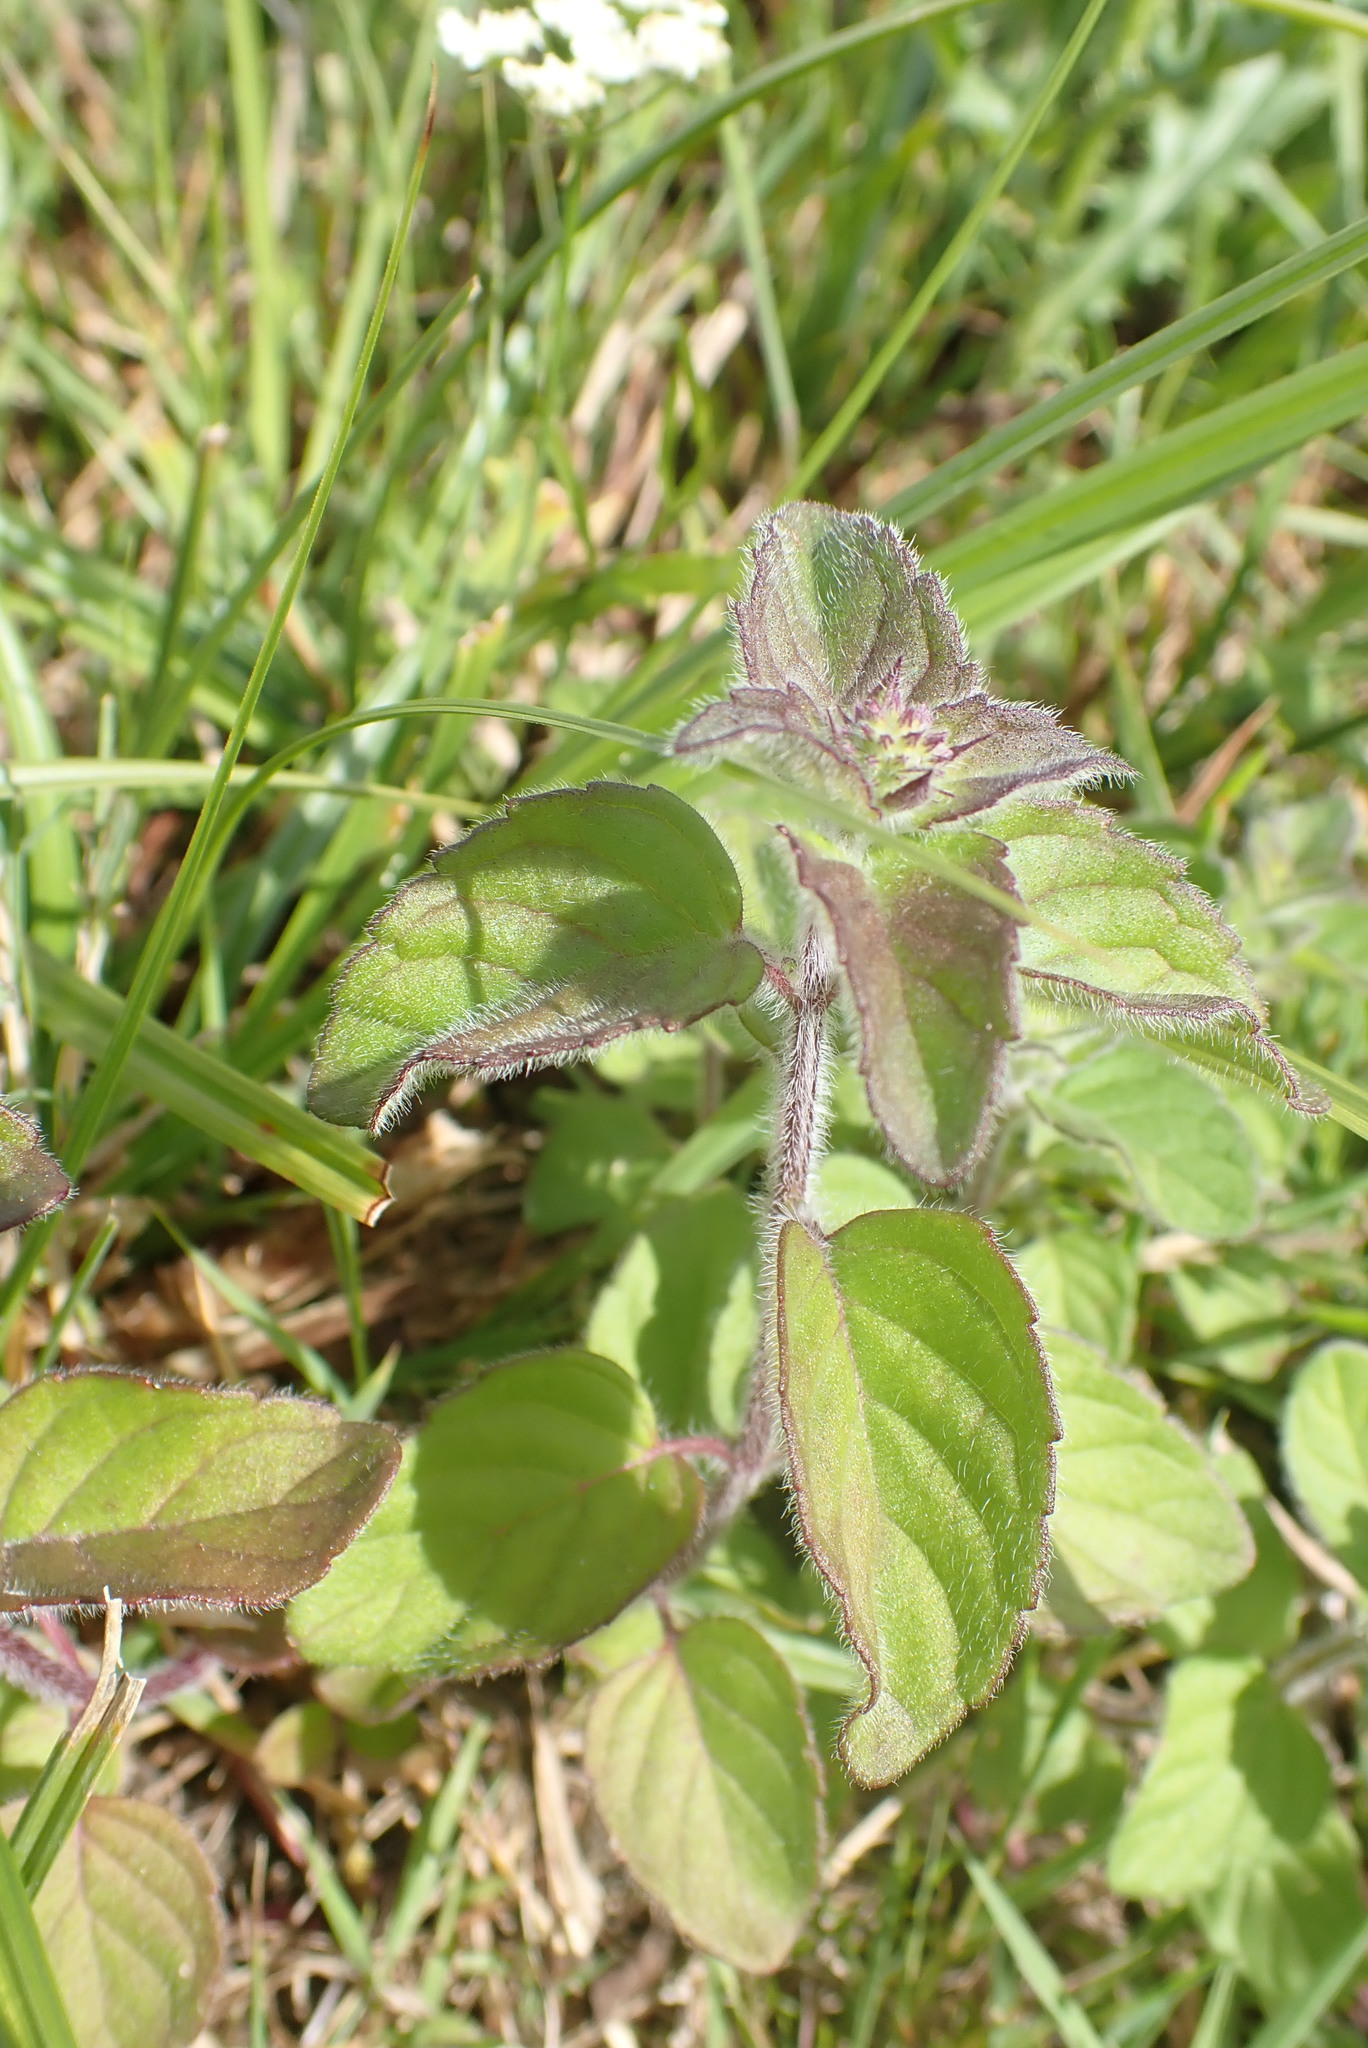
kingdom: Plantae
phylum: Tracheophyta
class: Magnoliopsida
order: Lamiales
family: Lamiaceae
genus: Mentha
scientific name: Mentha aquatica
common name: Water mint
